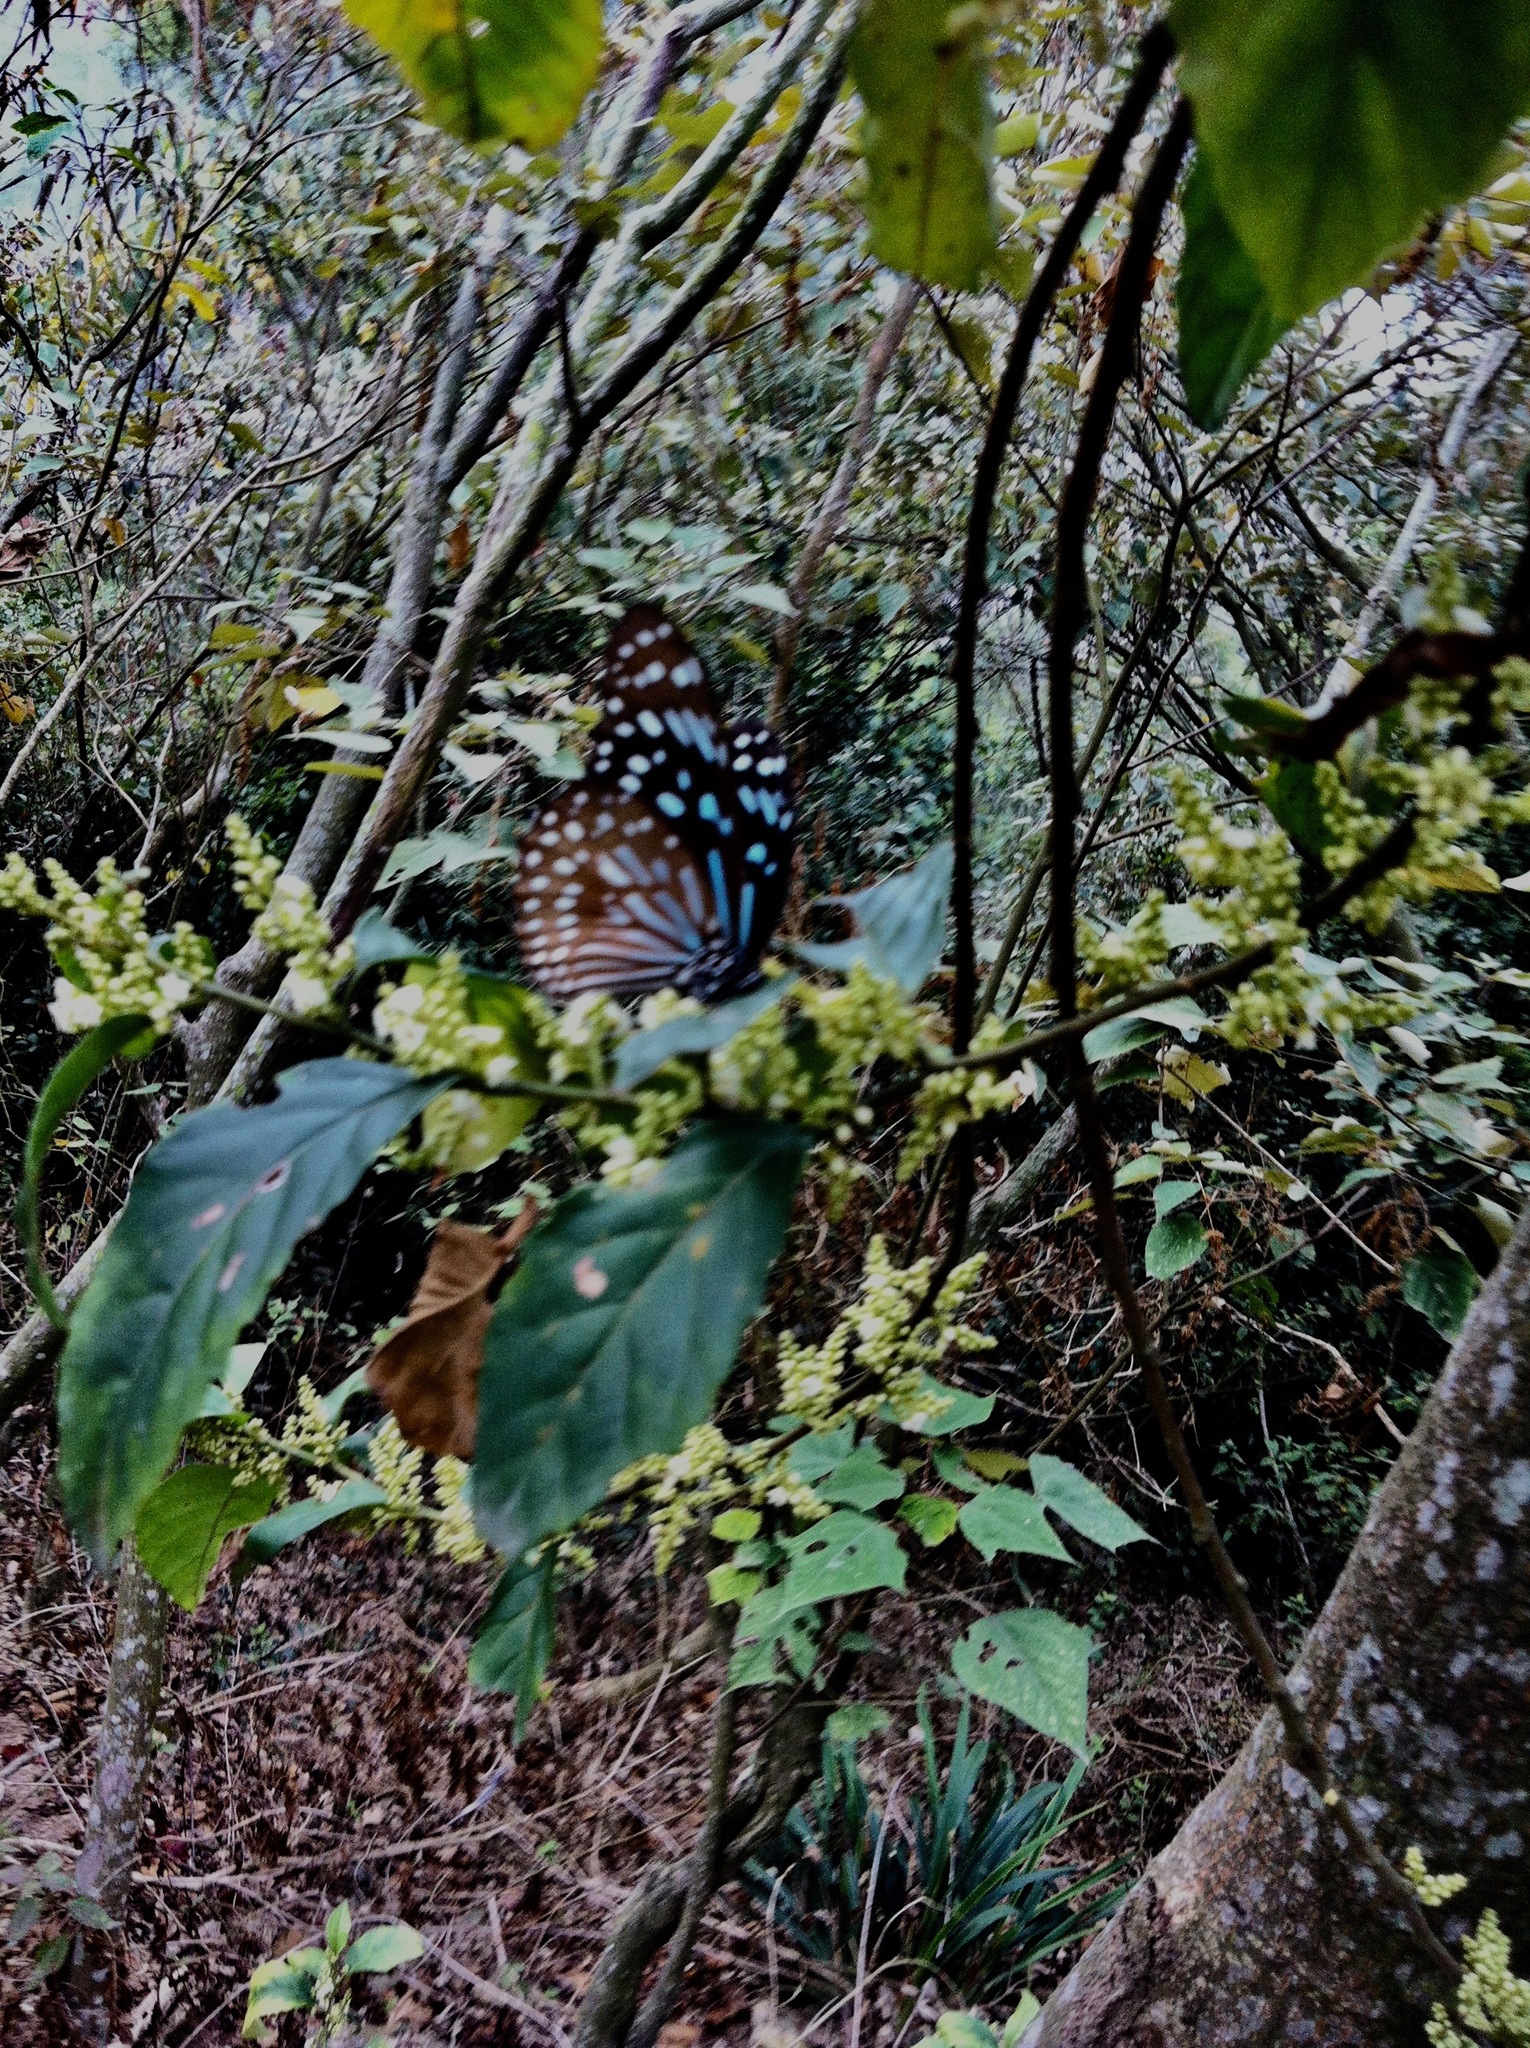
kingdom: Animalia
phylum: Arthropoda
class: Insecta
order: Lepidoptera
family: Nymphalidae
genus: Tirumala
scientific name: Tirumala septentrionis
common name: Dark blue tiger butterfly
